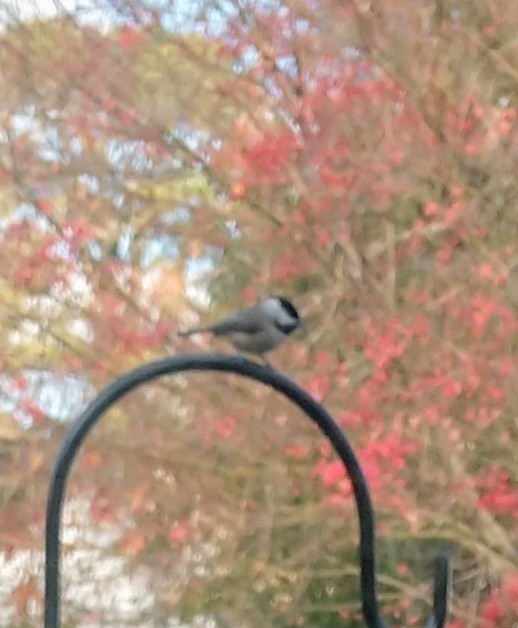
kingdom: Animalia
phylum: Chordata
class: Aves
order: Passeriformes
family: Paridae
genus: Poecile
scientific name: Poecile carolinensis
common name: Carolina chickadee
